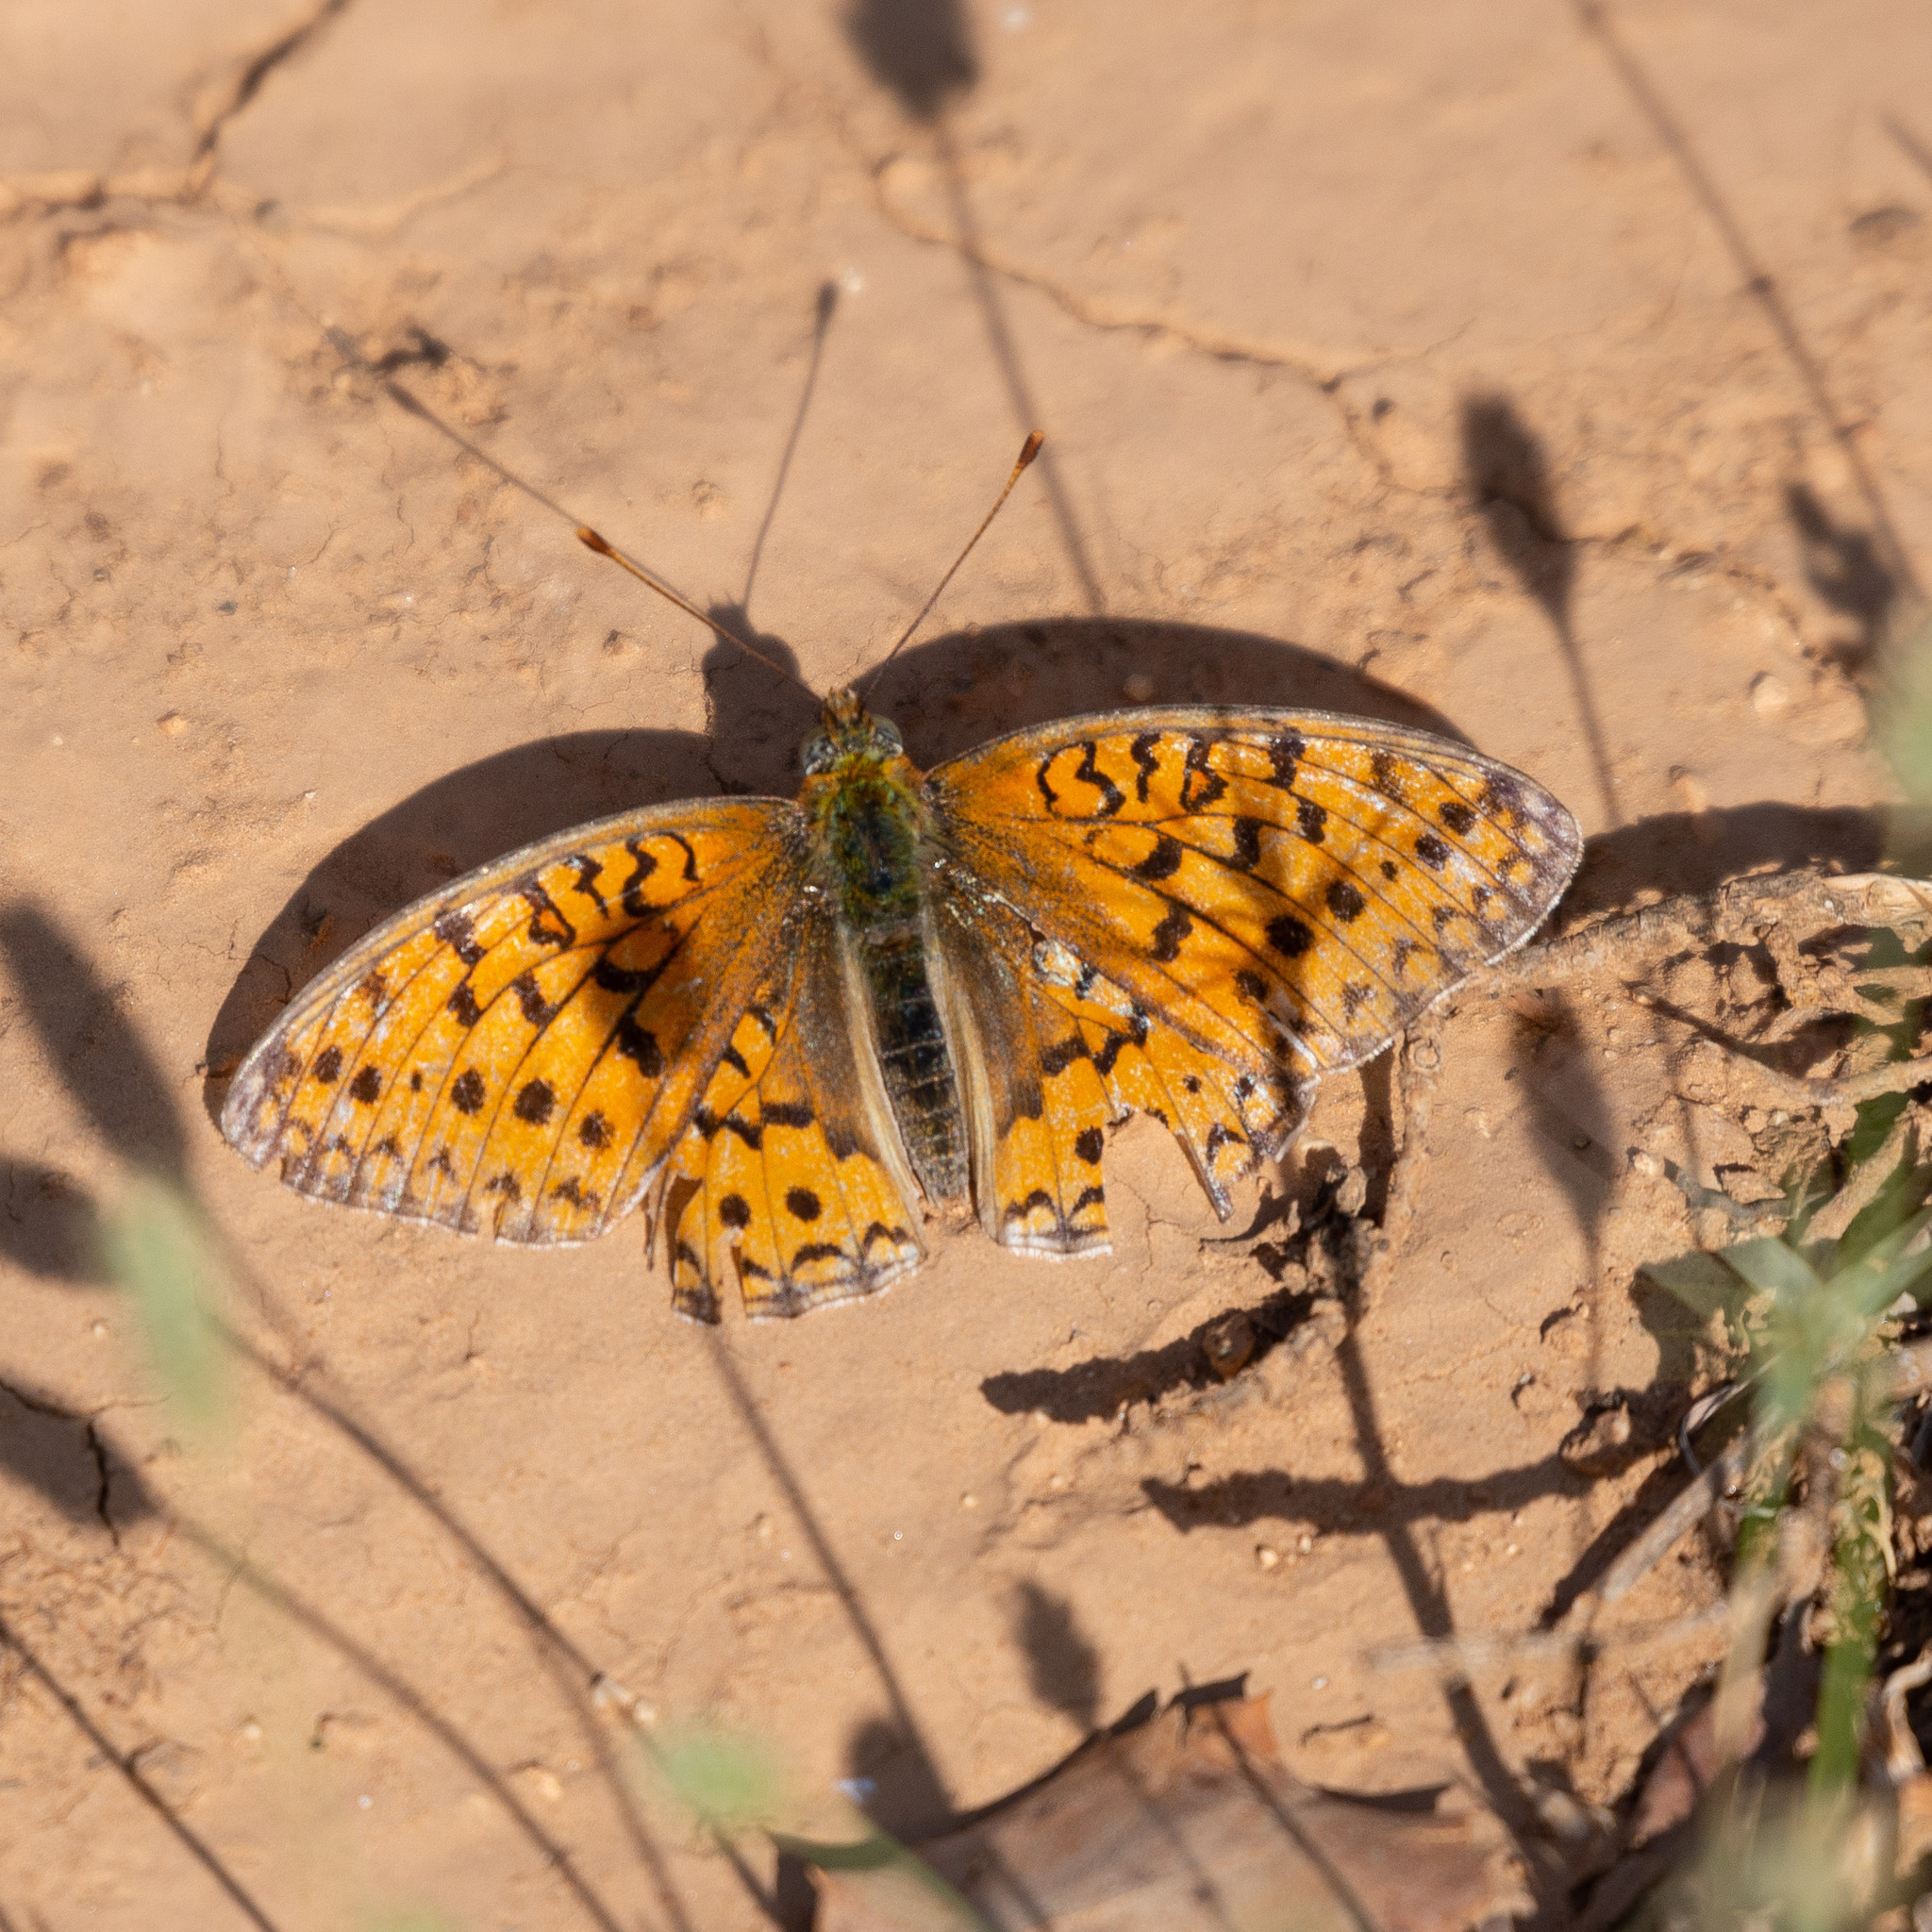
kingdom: Animalia
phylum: Arthropoda
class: Insecta
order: Lepidoptera
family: Nymphalidae
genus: Fabriciana
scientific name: Fabriciana niobe
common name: Niobe fritillary
